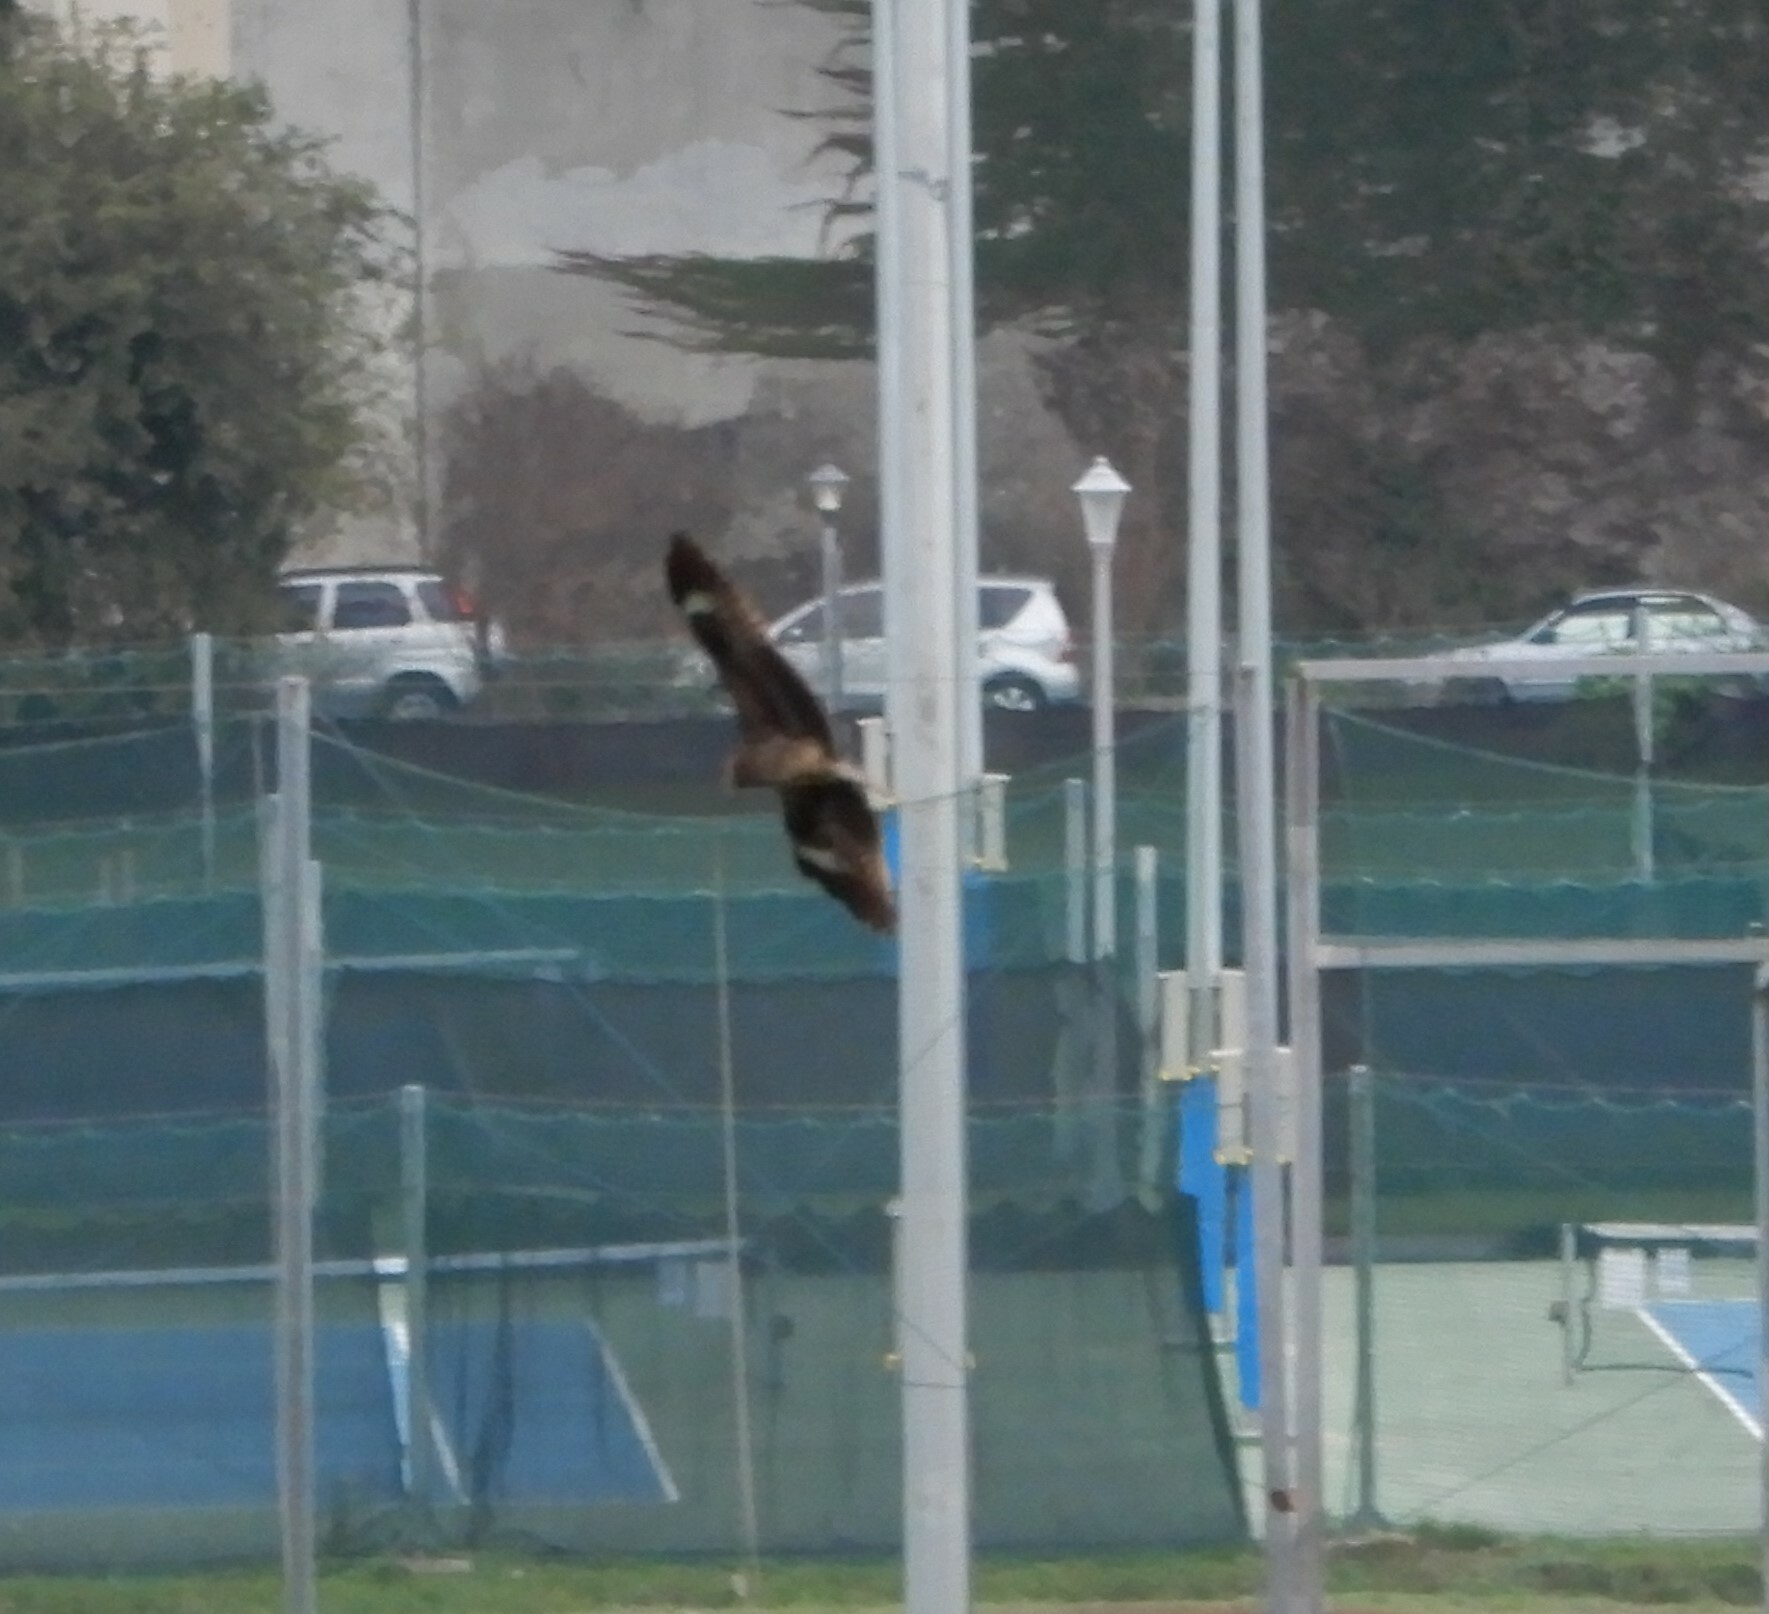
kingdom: Animalia
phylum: Chordata
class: Aves
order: Accipitriformes
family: Accipitridae
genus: Milvus
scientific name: Milvus migrans
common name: Black kite
